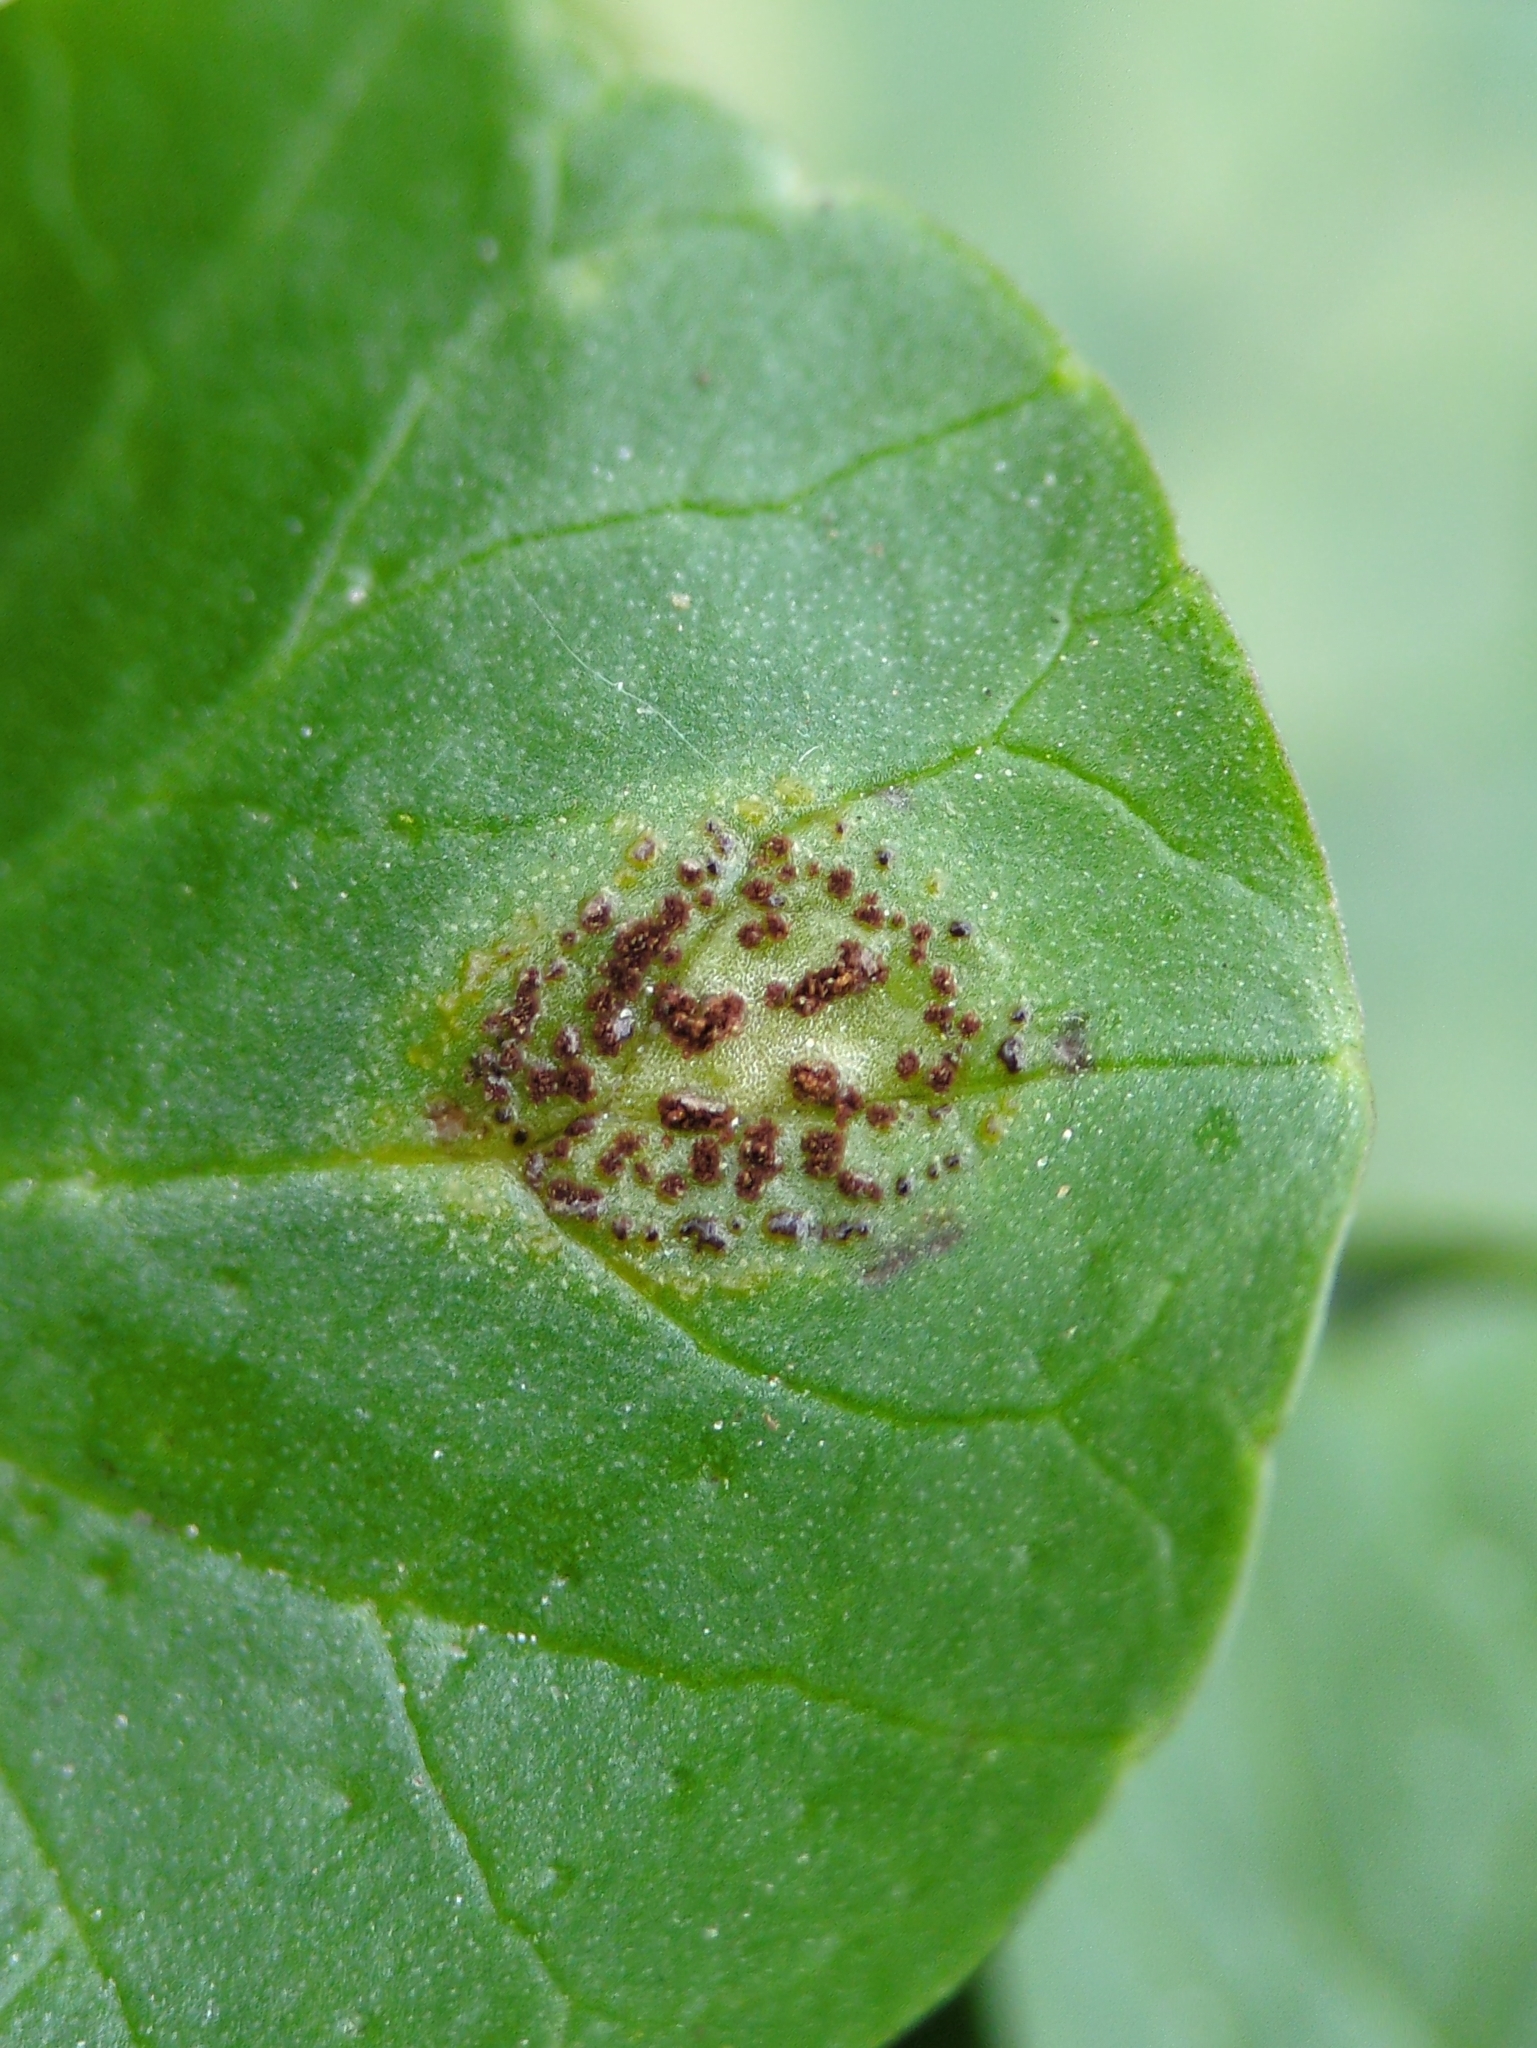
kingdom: Fungi
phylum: Basidiomycota
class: Pucciniomycetes
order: Pucciniales
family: Pucciniaceae
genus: Uromyces
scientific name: Uromyces ficariae
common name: Bitter chocolate rust
